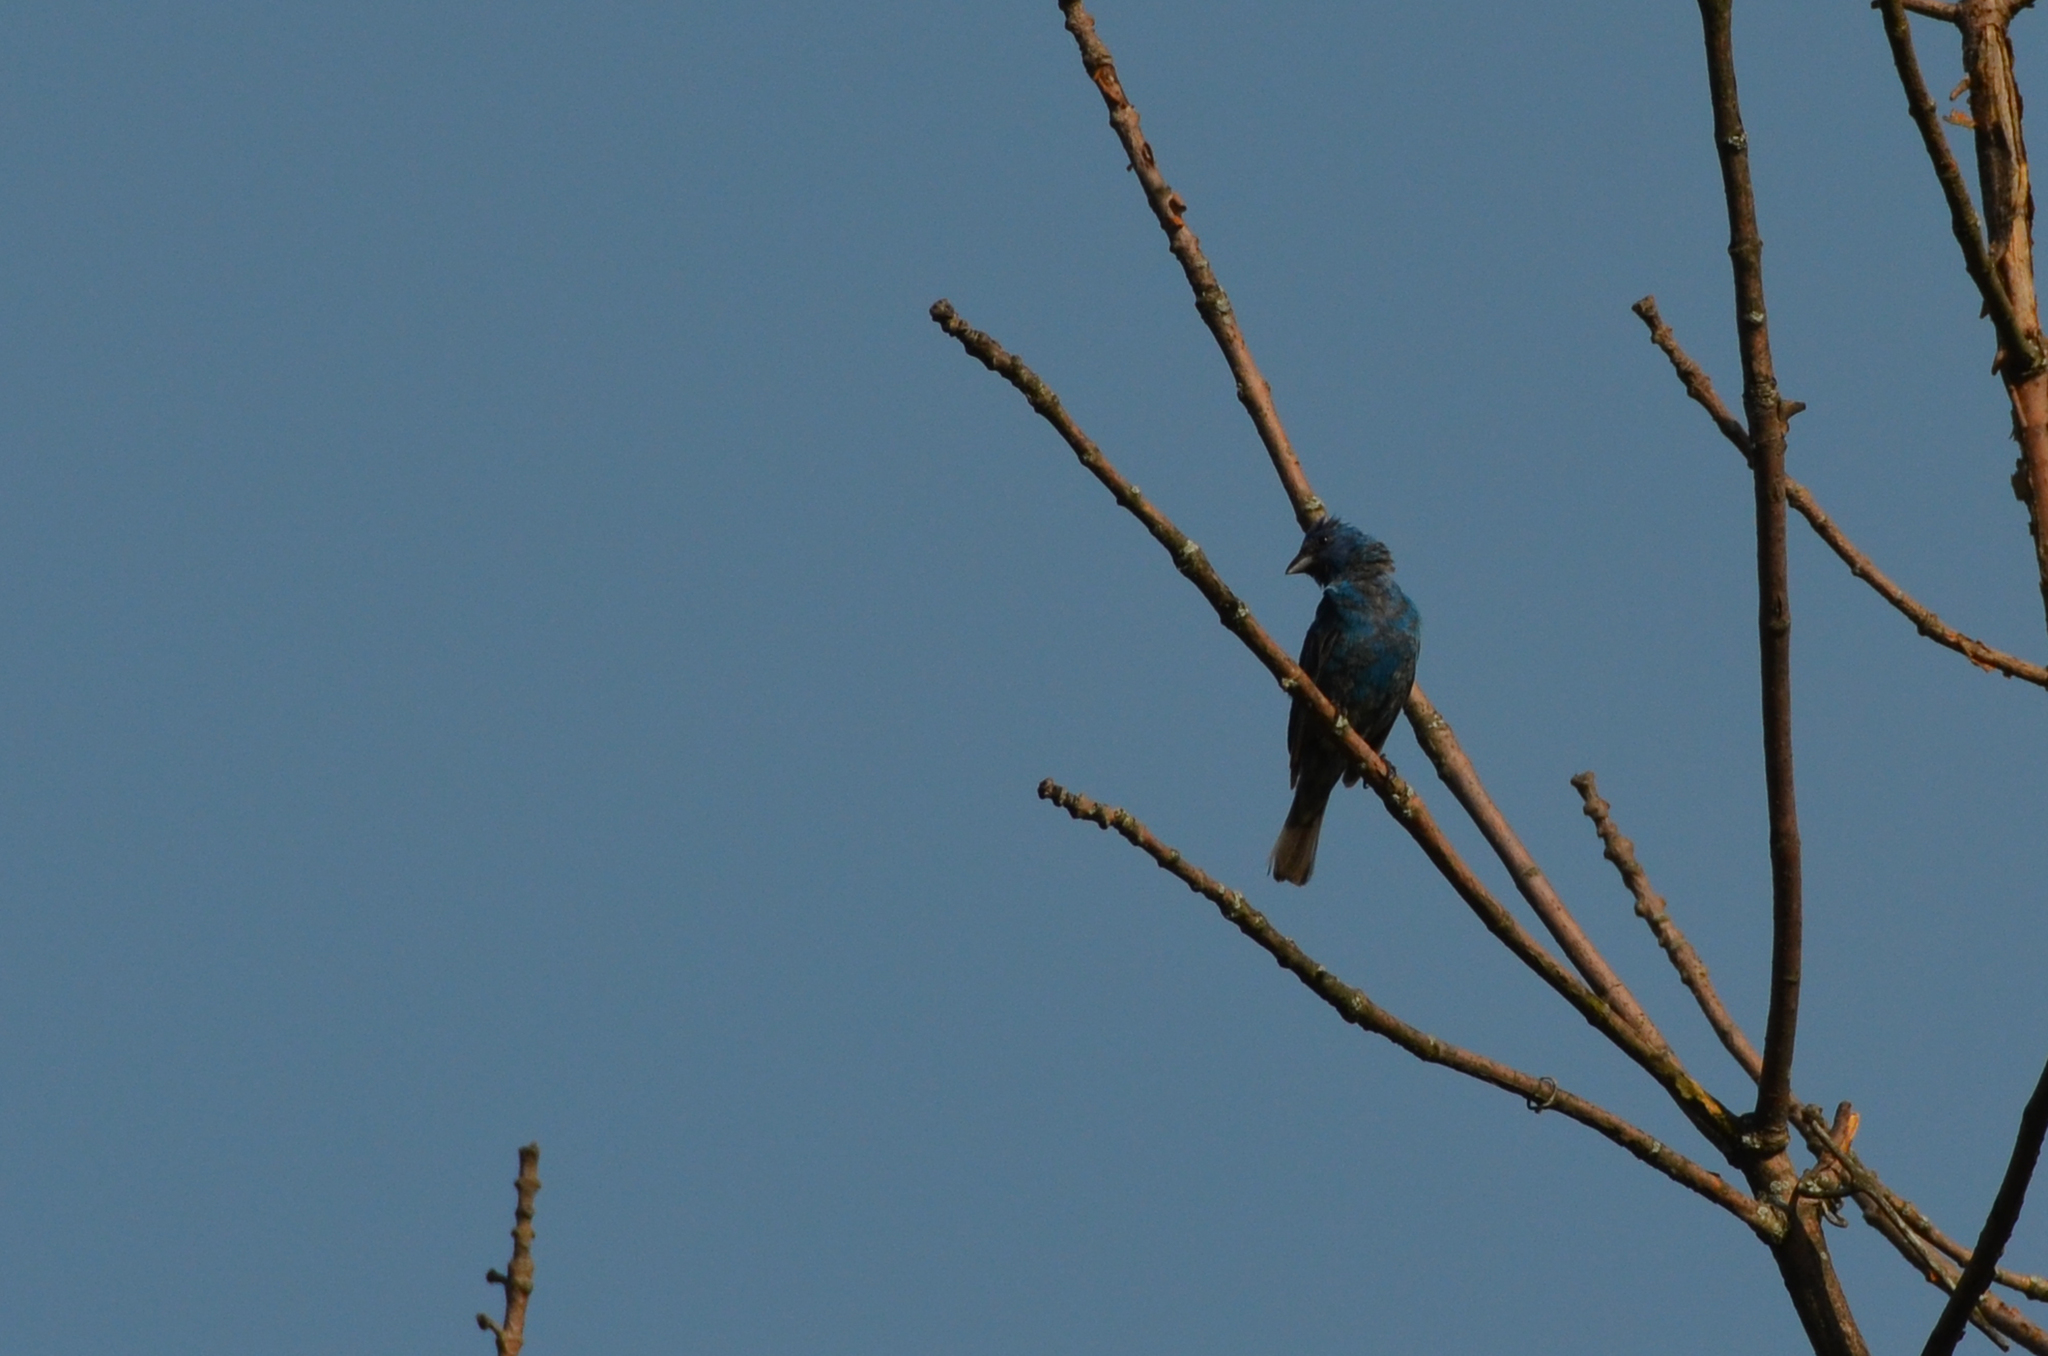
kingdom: Animalia
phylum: Chordata
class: Aves
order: Passeriformes
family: Cardinalidae
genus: Passerina
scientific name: Passerina cyanea
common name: Indigo bunting
